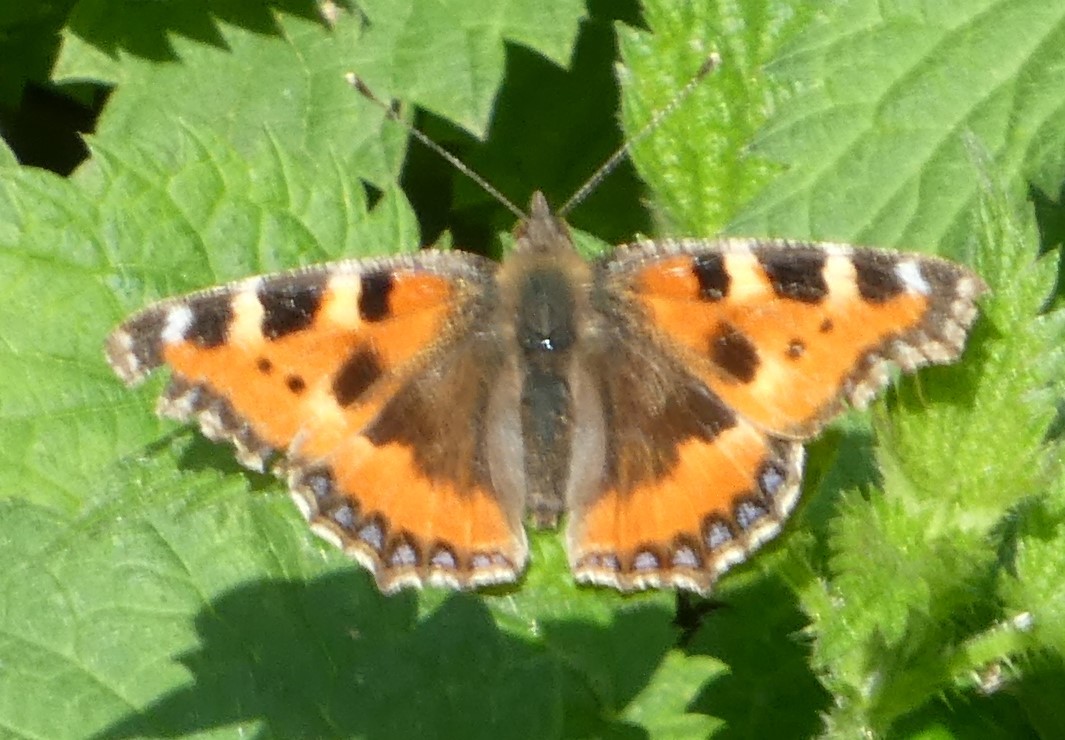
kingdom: Animalia
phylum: Arthropoda
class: Insecta
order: Lepidoptera
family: Nymphalidae
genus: Aglais
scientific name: Aglais urticae
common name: Small tortoiseshell
